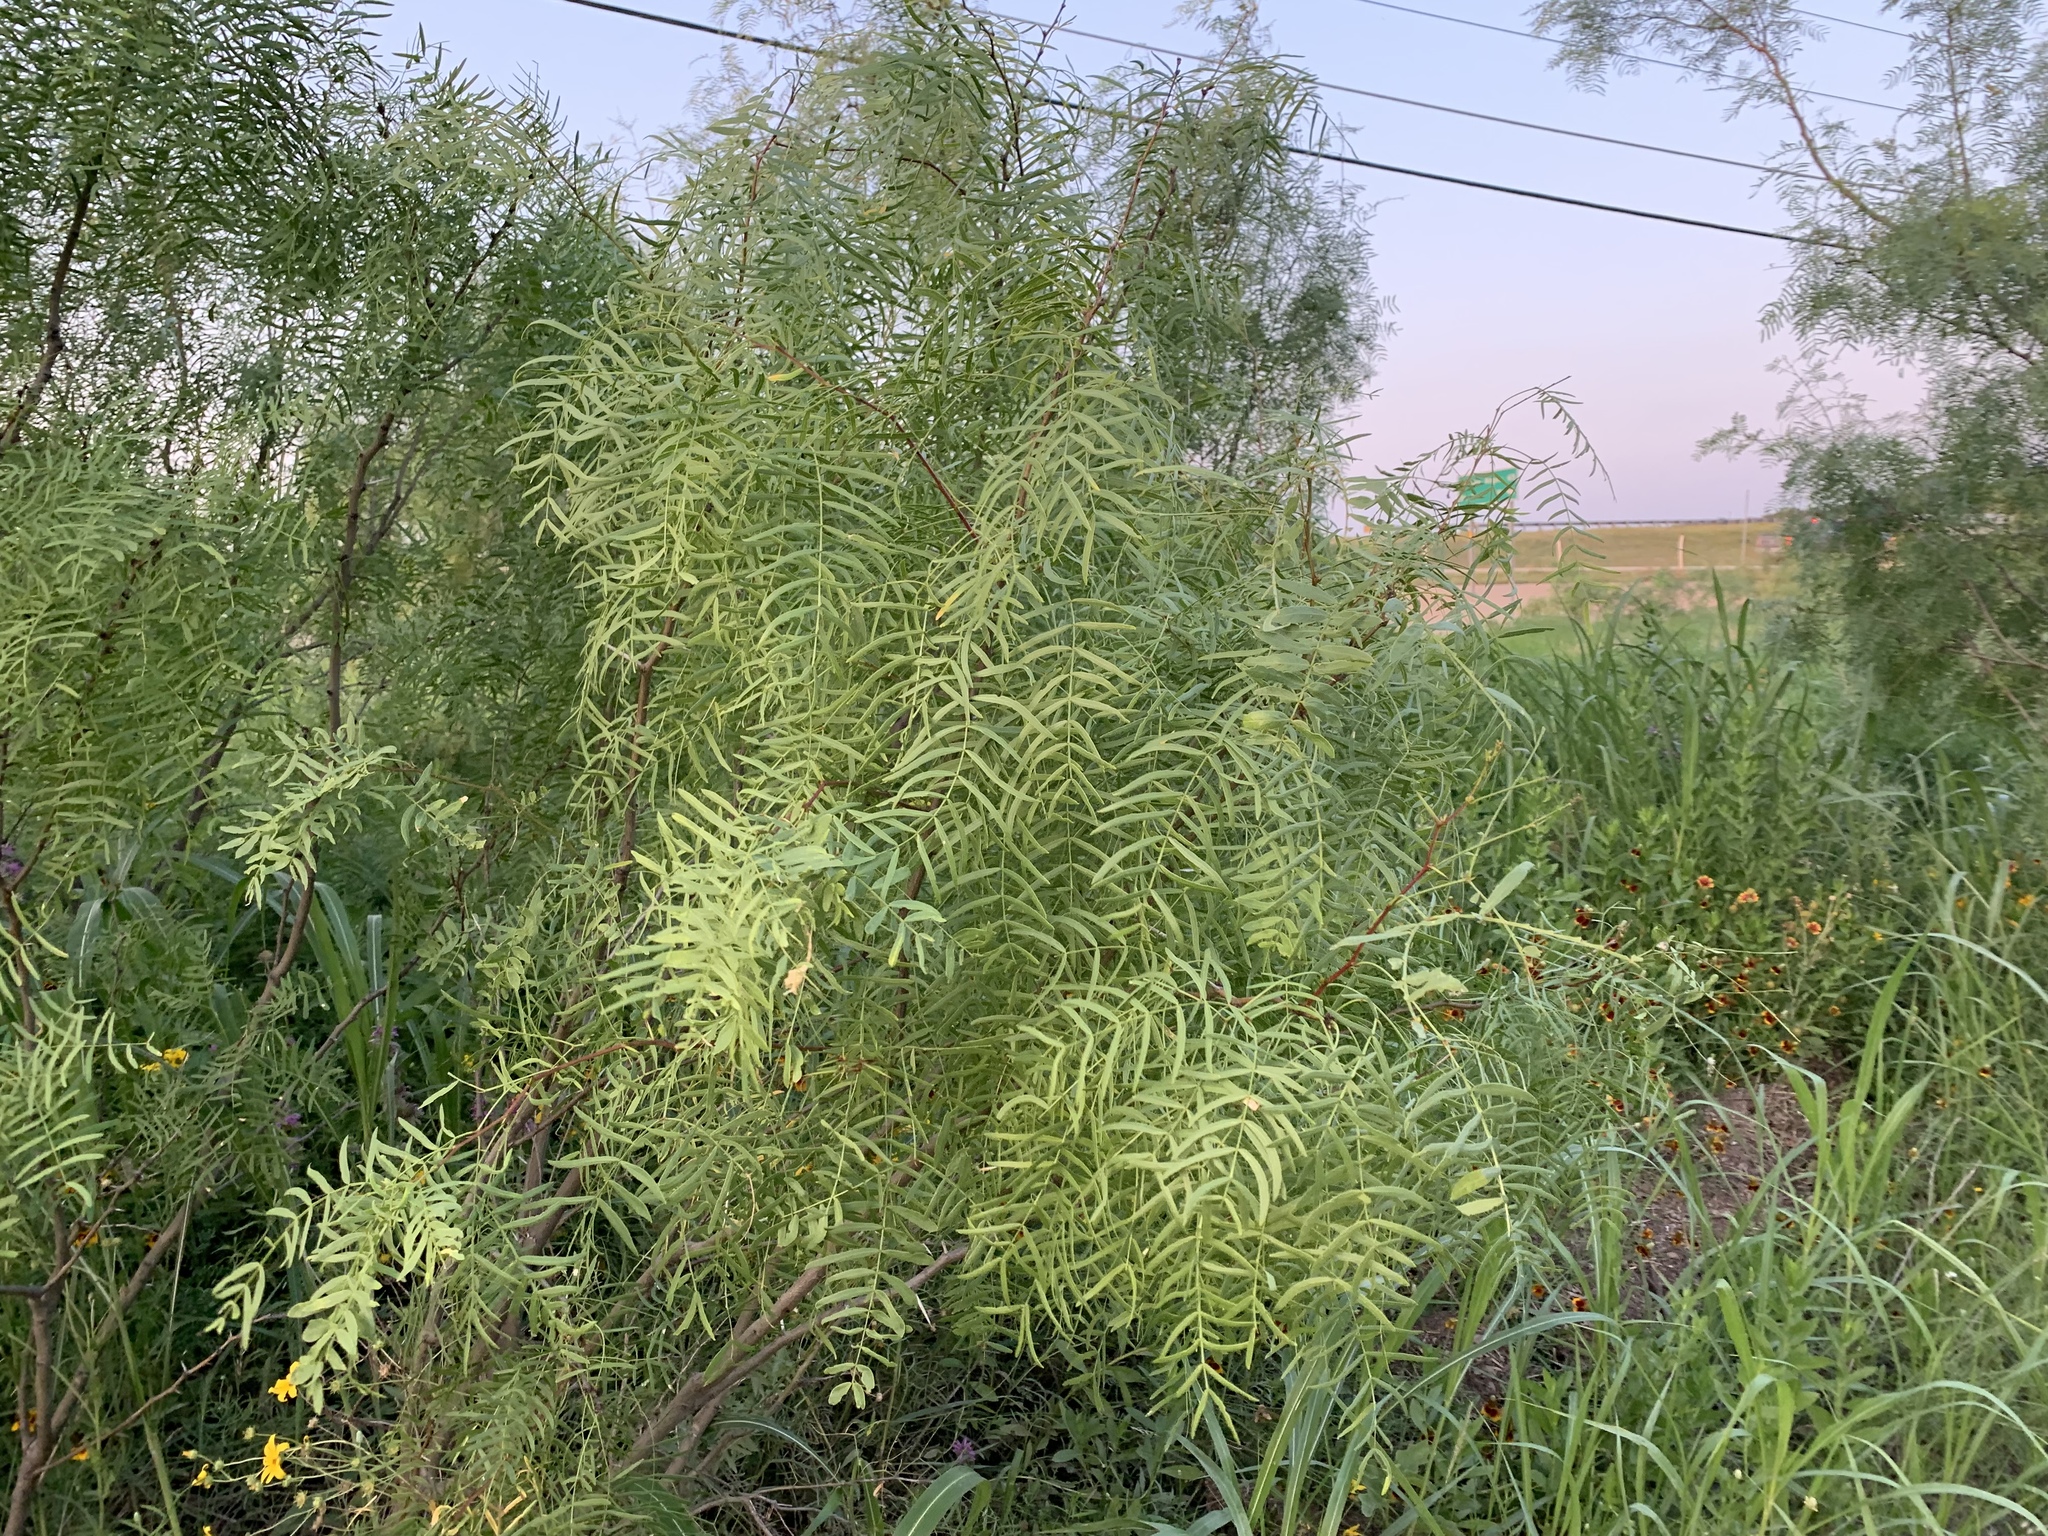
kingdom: Plantae
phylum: Tracheophyta
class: Magnoliopsida
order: Fabales
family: Fabaceae
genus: Prosopis
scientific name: Prosopis glandulosa
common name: Honey mesquite
